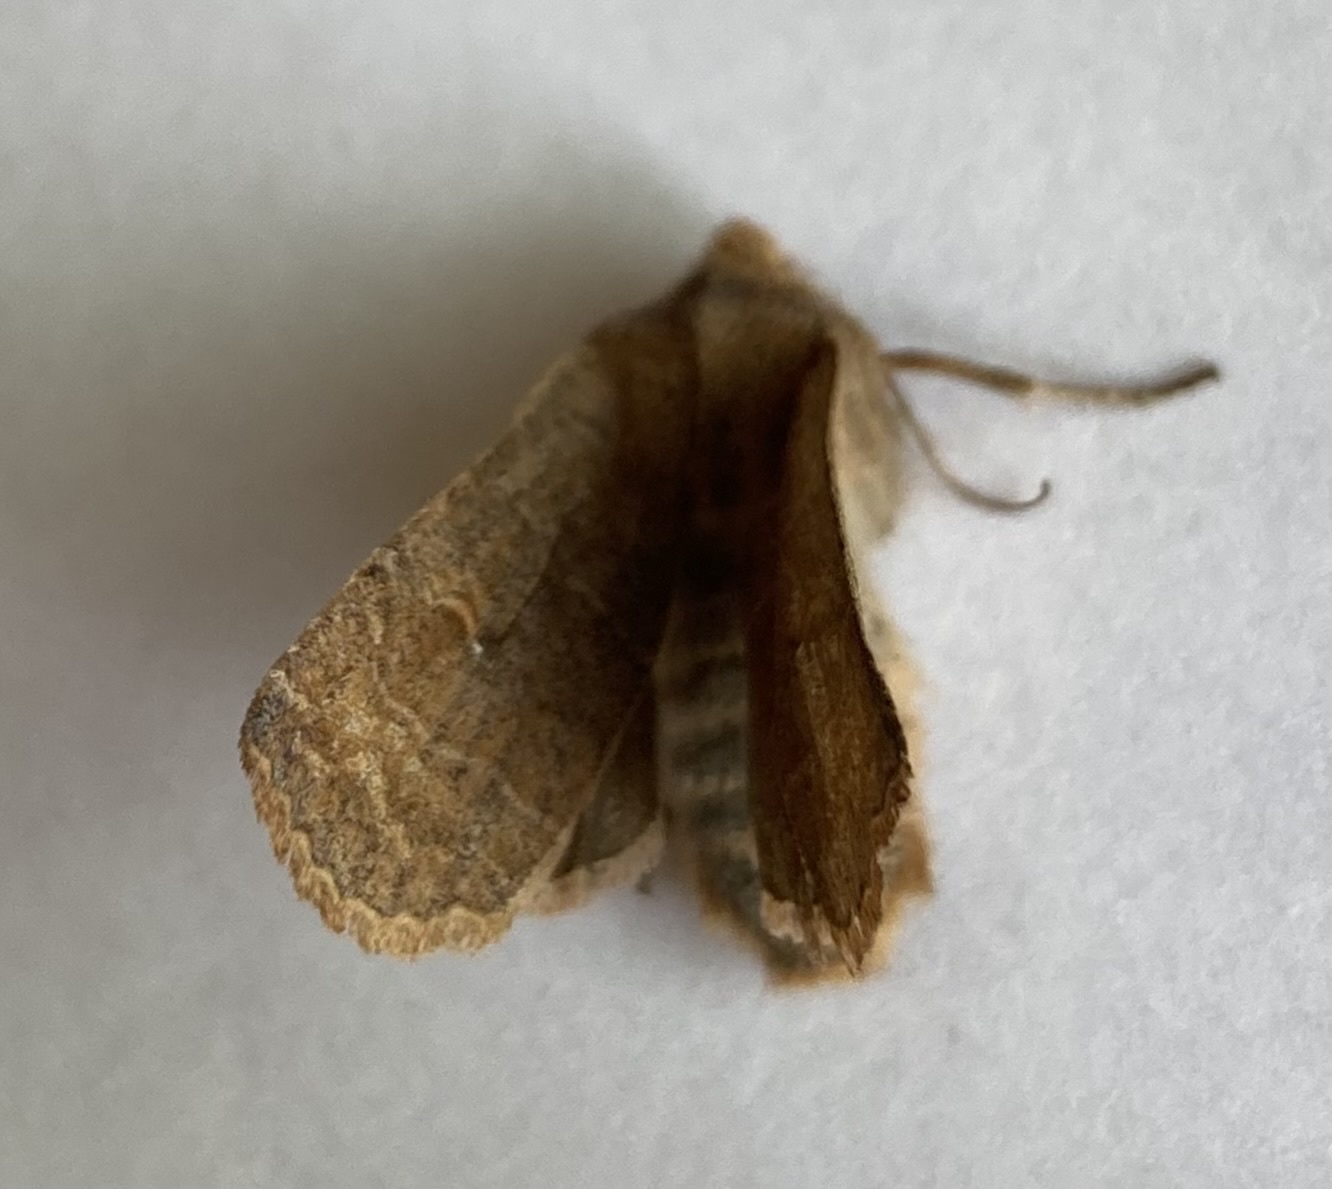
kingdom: Animalia
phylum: Arthropoda
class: Insecta
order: Lepidoptera
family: Noctuidae
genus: Eupsilia
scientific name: Eupsilia morrisoni
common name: Morrison's sallow
